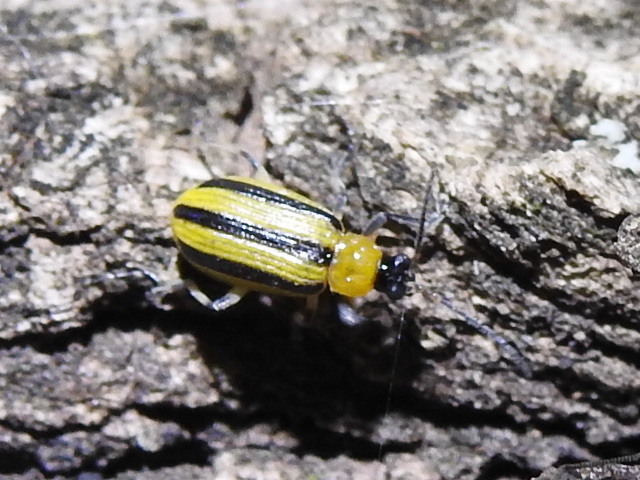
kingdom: Animalia
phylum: Arthropoda
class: Insecta
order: Coleoptera
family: Chrysomelidae
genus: Acalymma
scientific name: Acalymma vittatum
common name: Striped cucumber beetle
